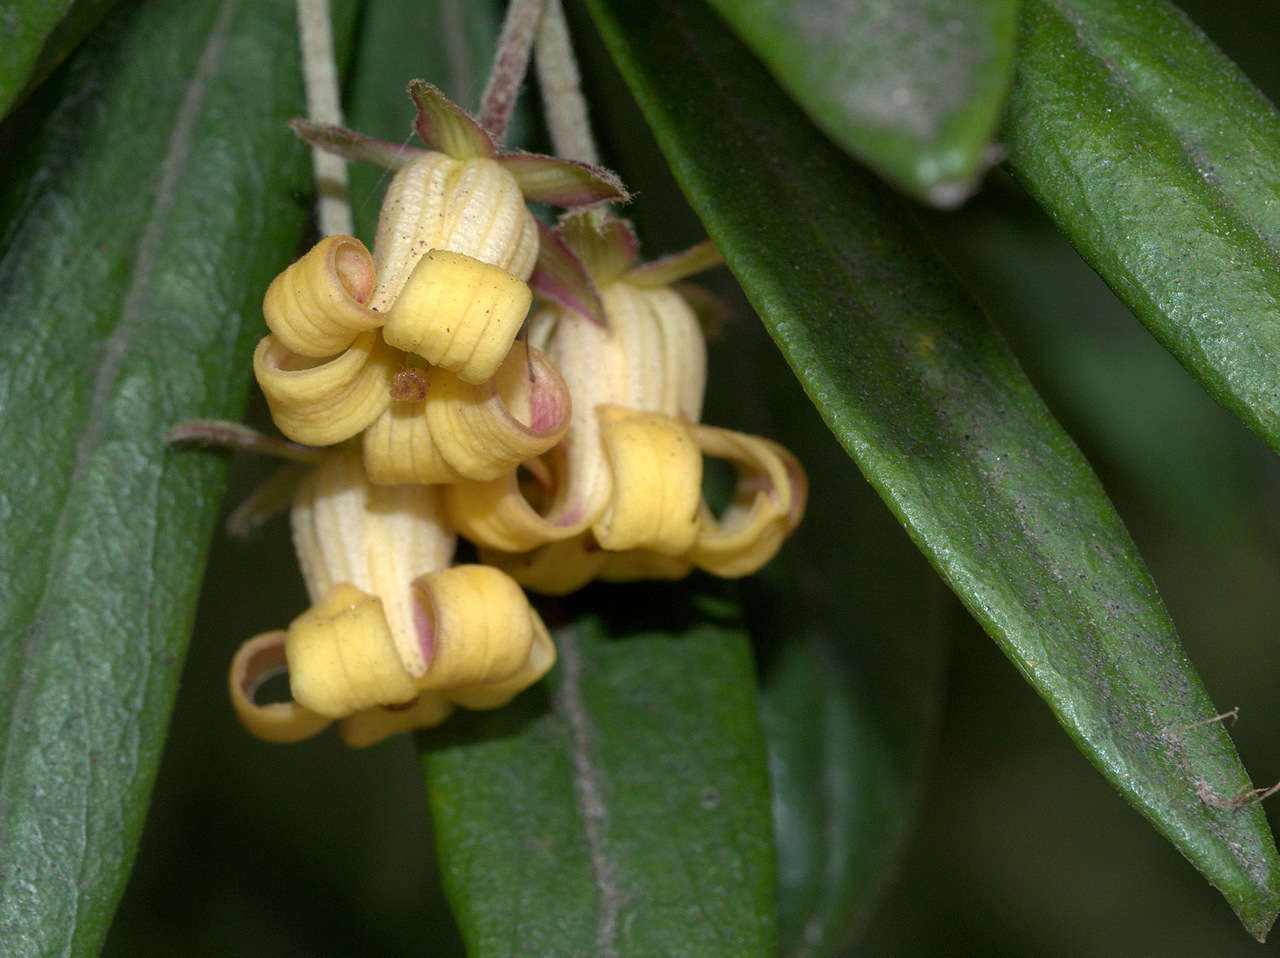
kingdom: Plantae
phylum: Tracheophyta
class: Magnoliopsida
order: Apiales
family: Pittosporaceae
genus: Pittosporum
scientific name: Pittosporum bicolor
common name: Tallowwood
